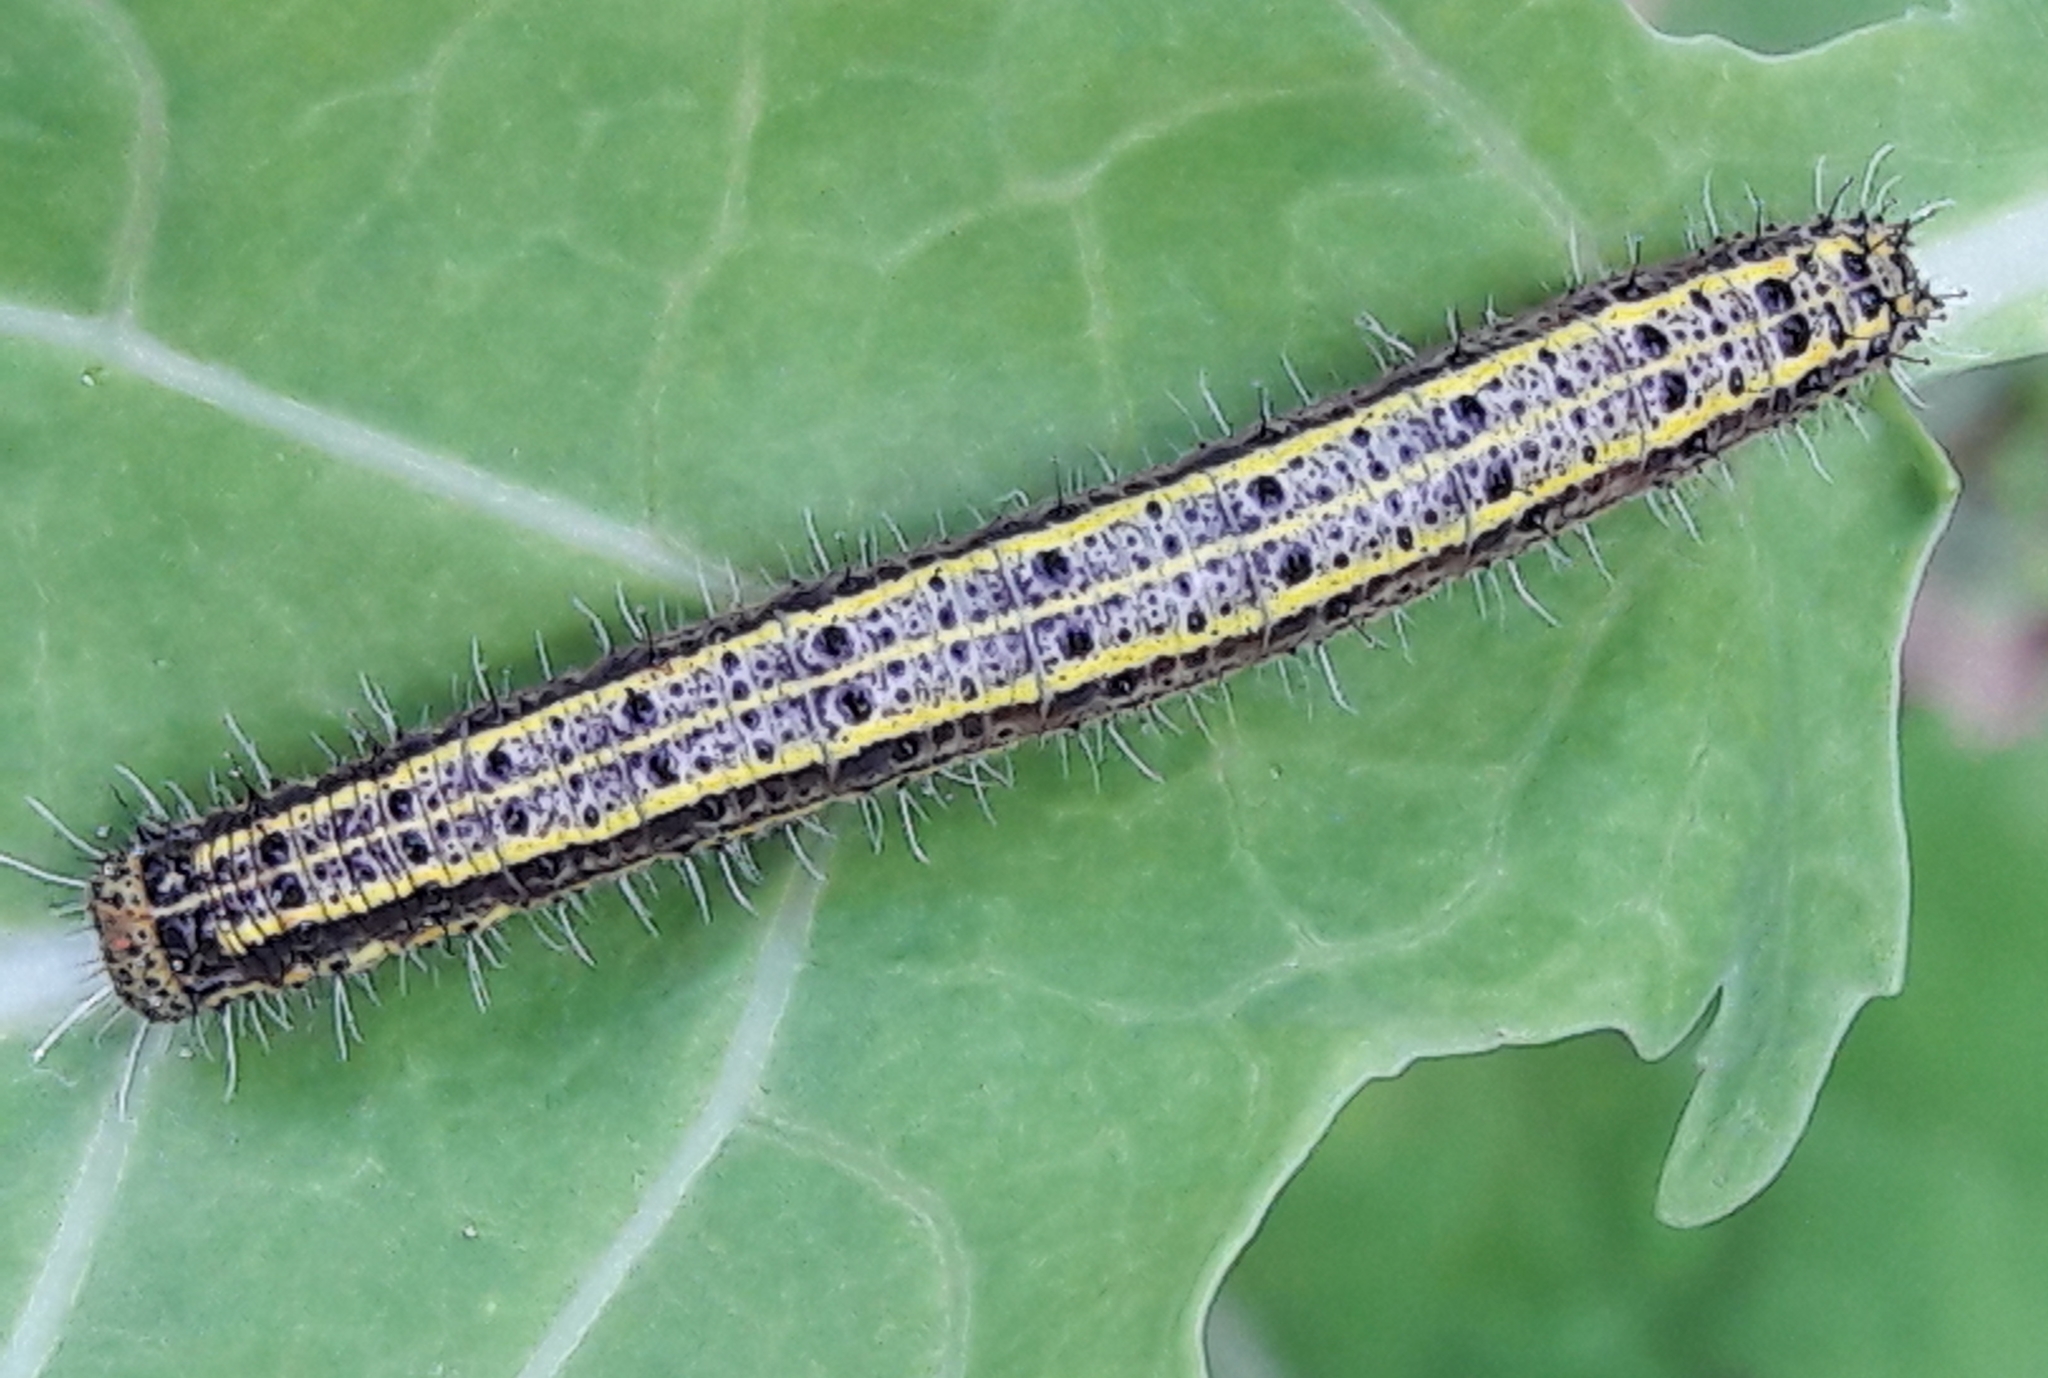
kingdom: Animalia
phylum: Arthropoda
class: Insecta
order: Lepidoptera
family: Pieridae
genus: Ascia
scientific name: Ascia monuste
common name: Great southern white
